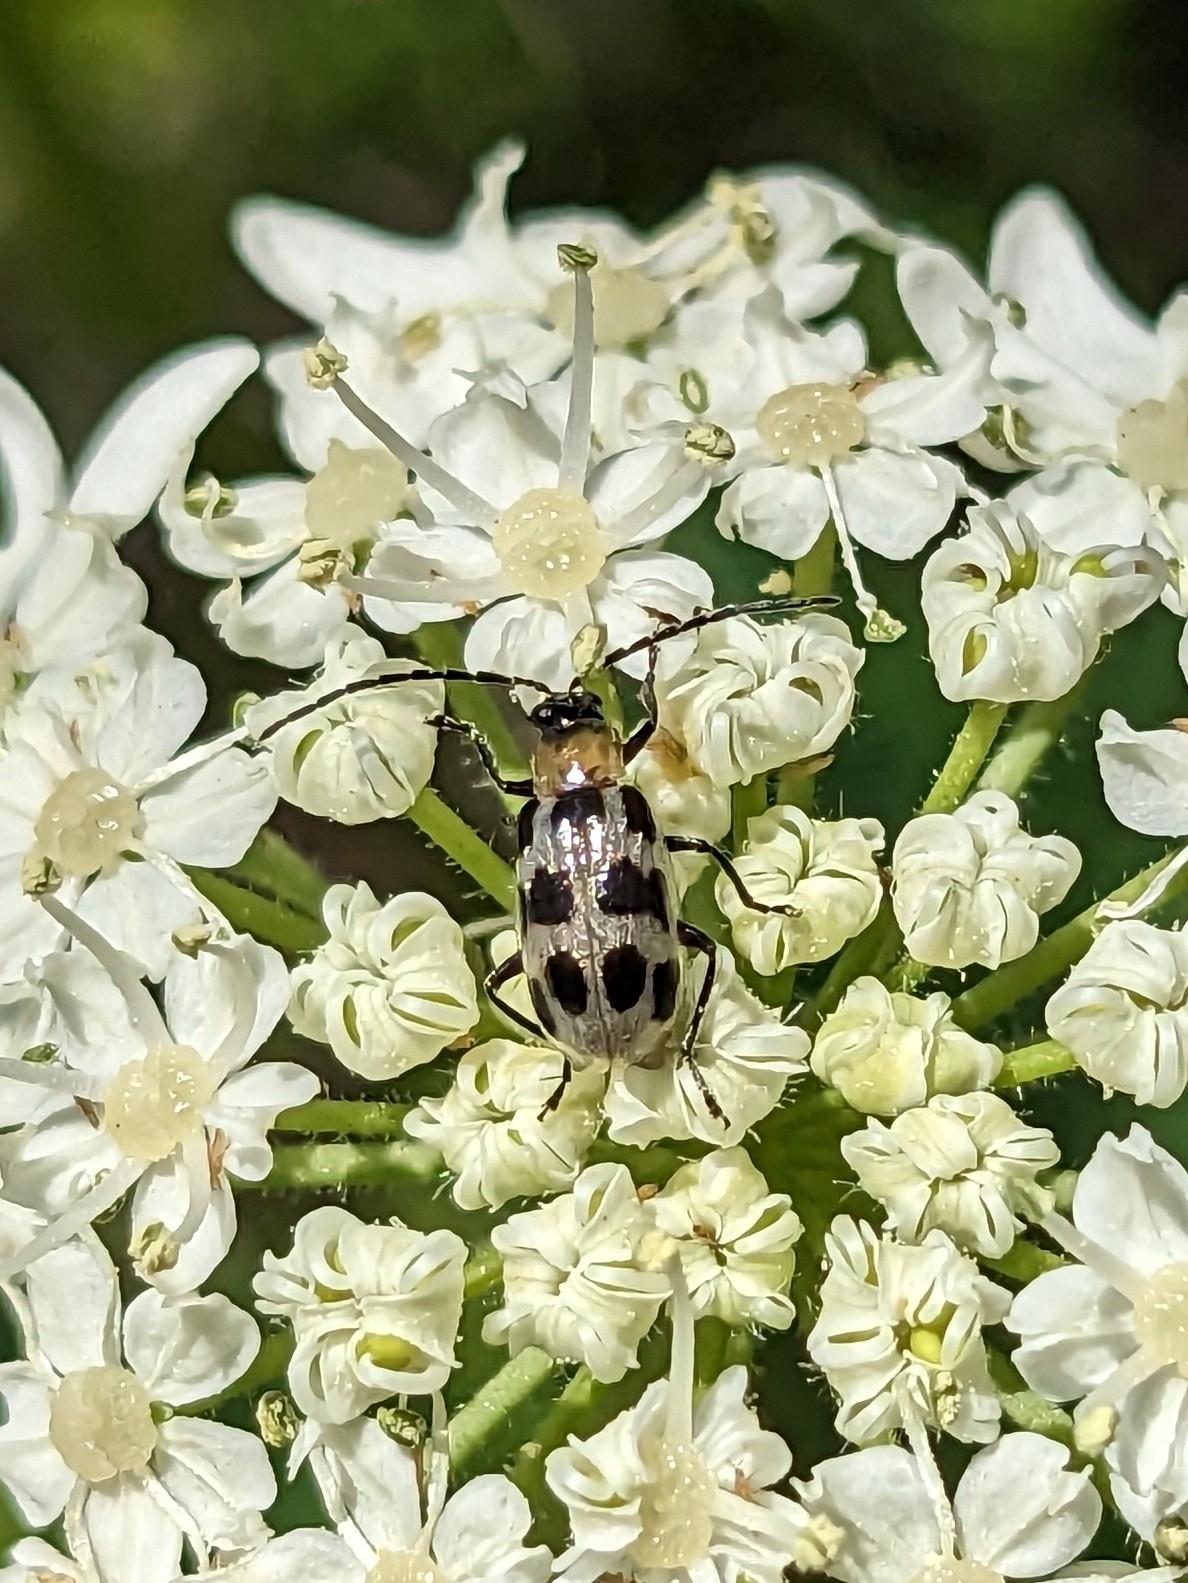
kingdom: Animalia
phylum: Arthropoda
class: Insecta
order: Coleoptera
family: Chrysomelidae
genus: Diabrotica
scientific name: Diabrotica undecimpunctata
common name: Spotted cucumber beetle
